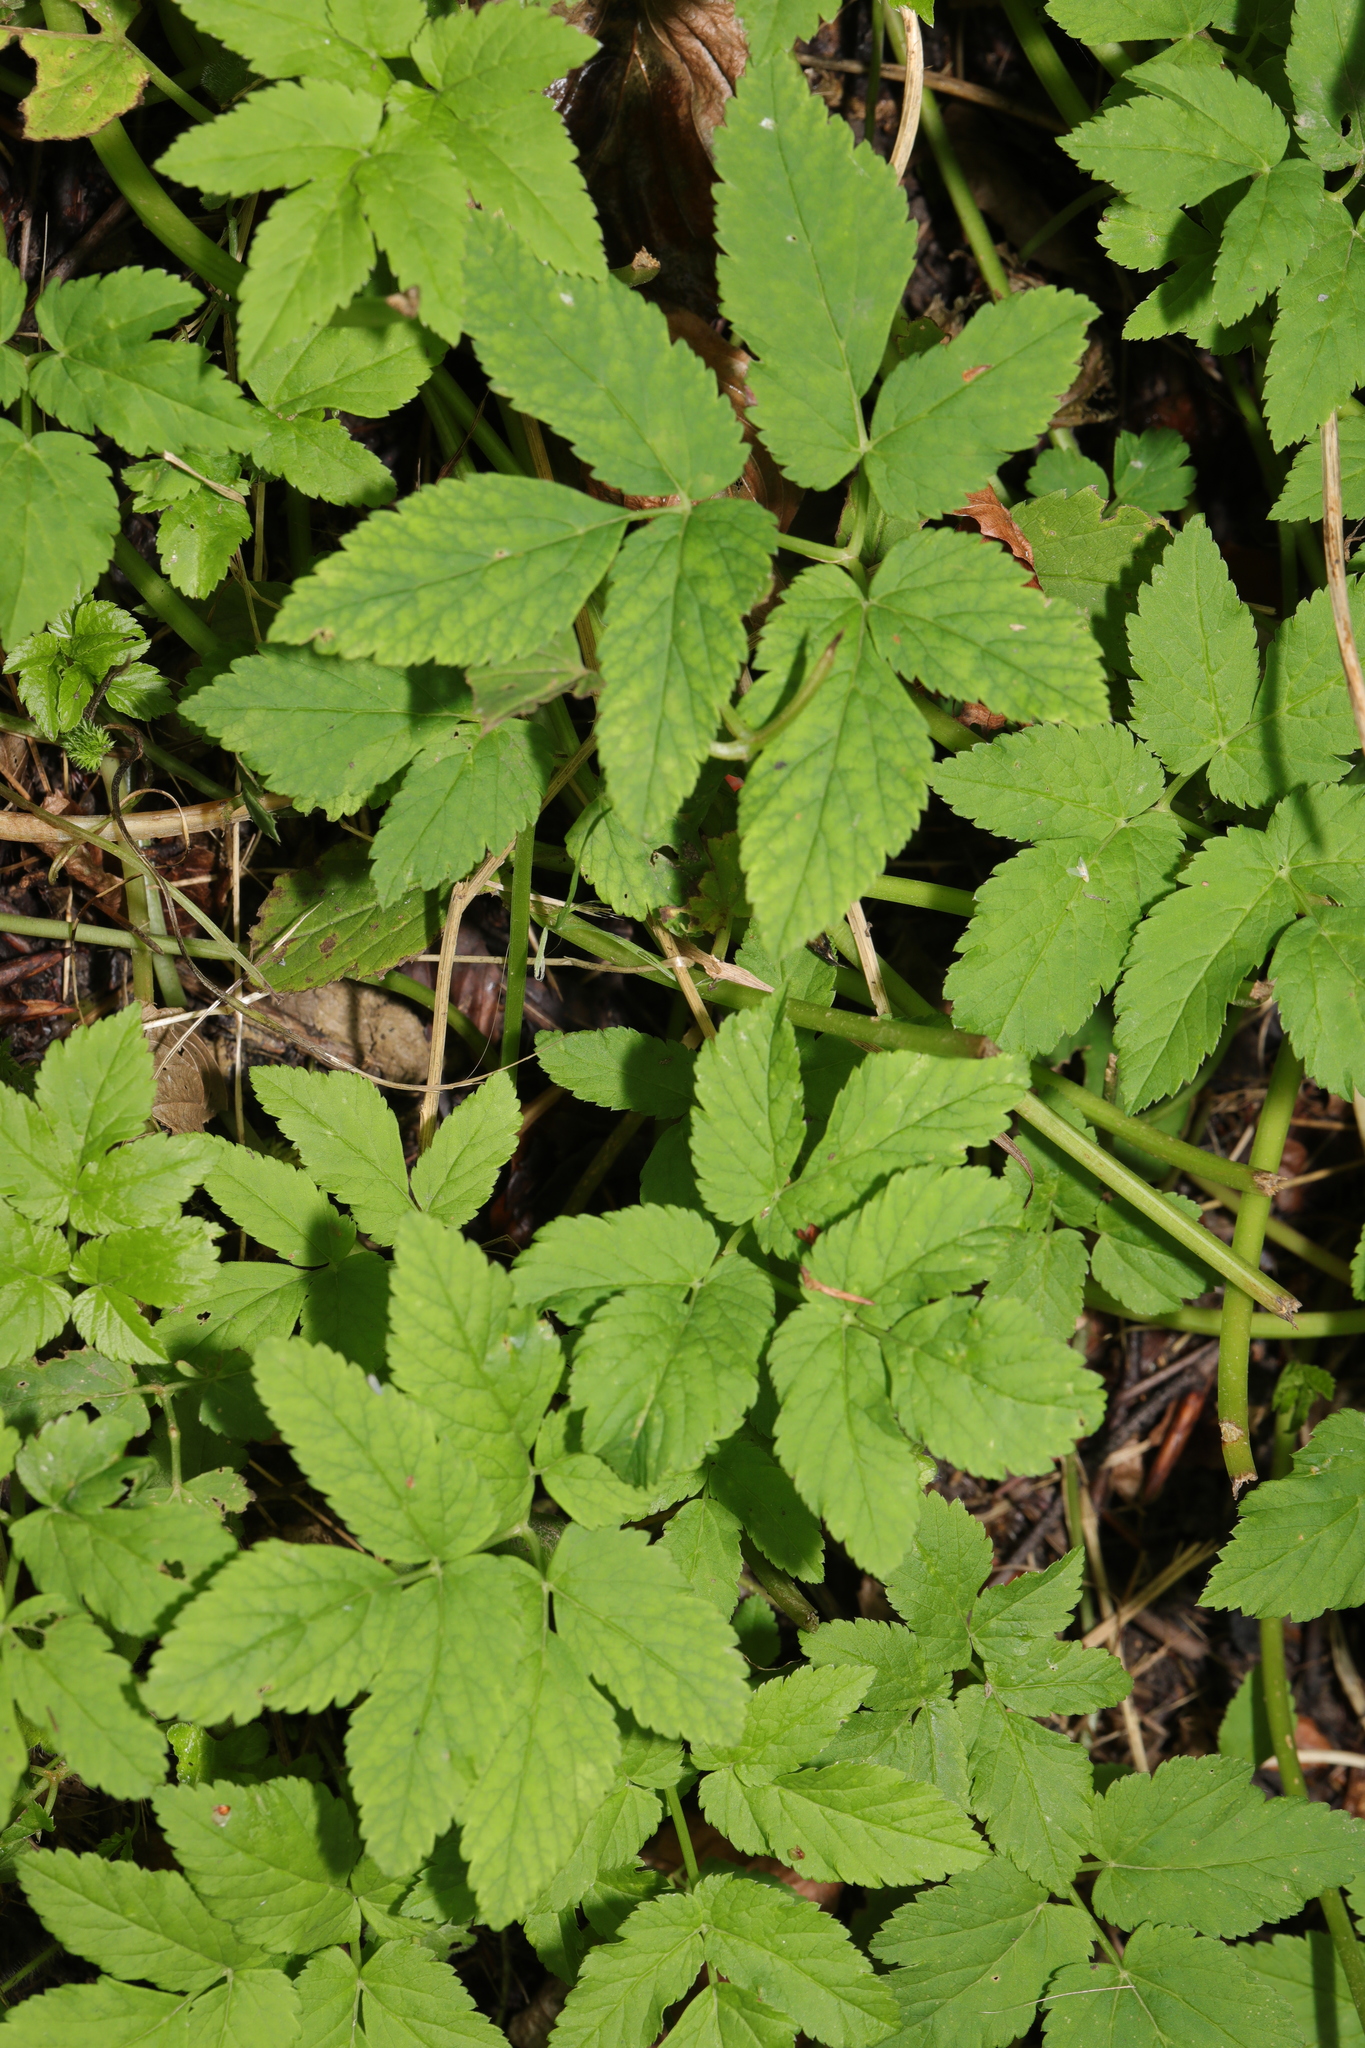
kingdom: Plantae
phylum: Tracheophyta
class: Magnoliopsida
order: Apiales
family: Apiaceae
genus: Aegopodium
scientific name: Aegopodium podagraria
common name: Ground-elder
